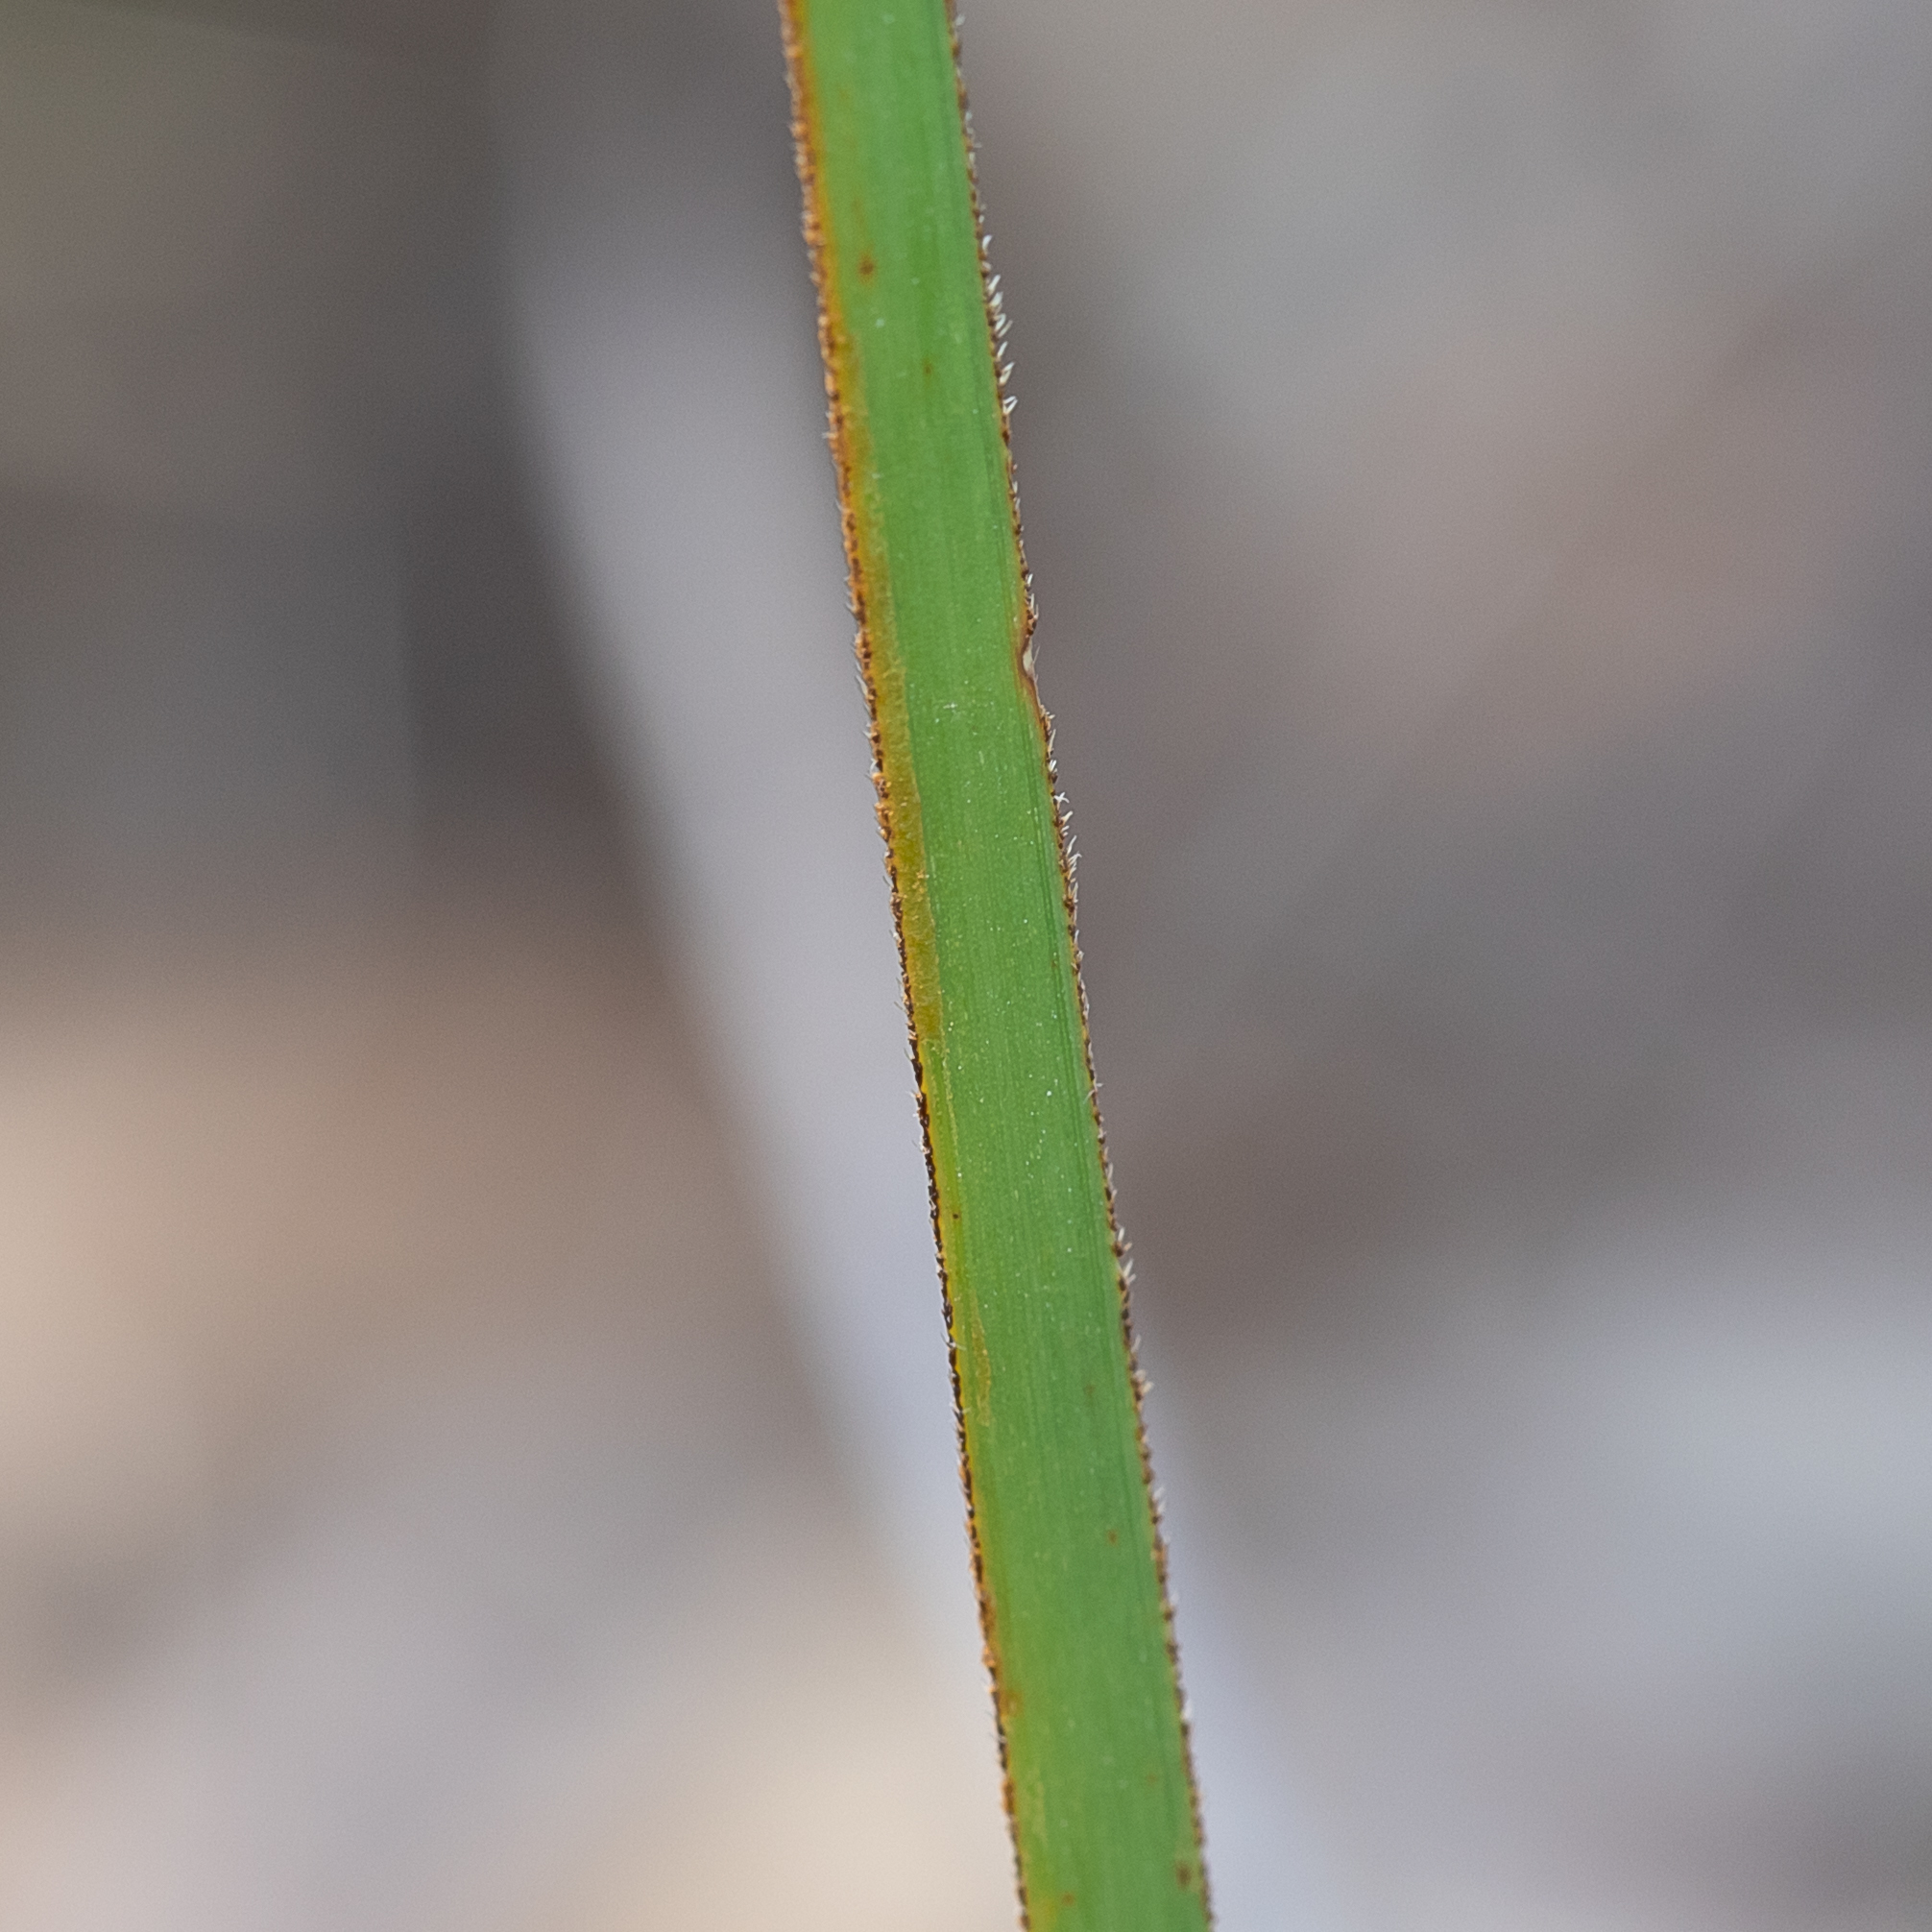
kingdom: Plantae
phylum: Tracheophyta
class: Liliopsida
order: Poales
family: Cyperaceae
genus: Lepidosperma
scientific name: Lepidosperma viscidum
